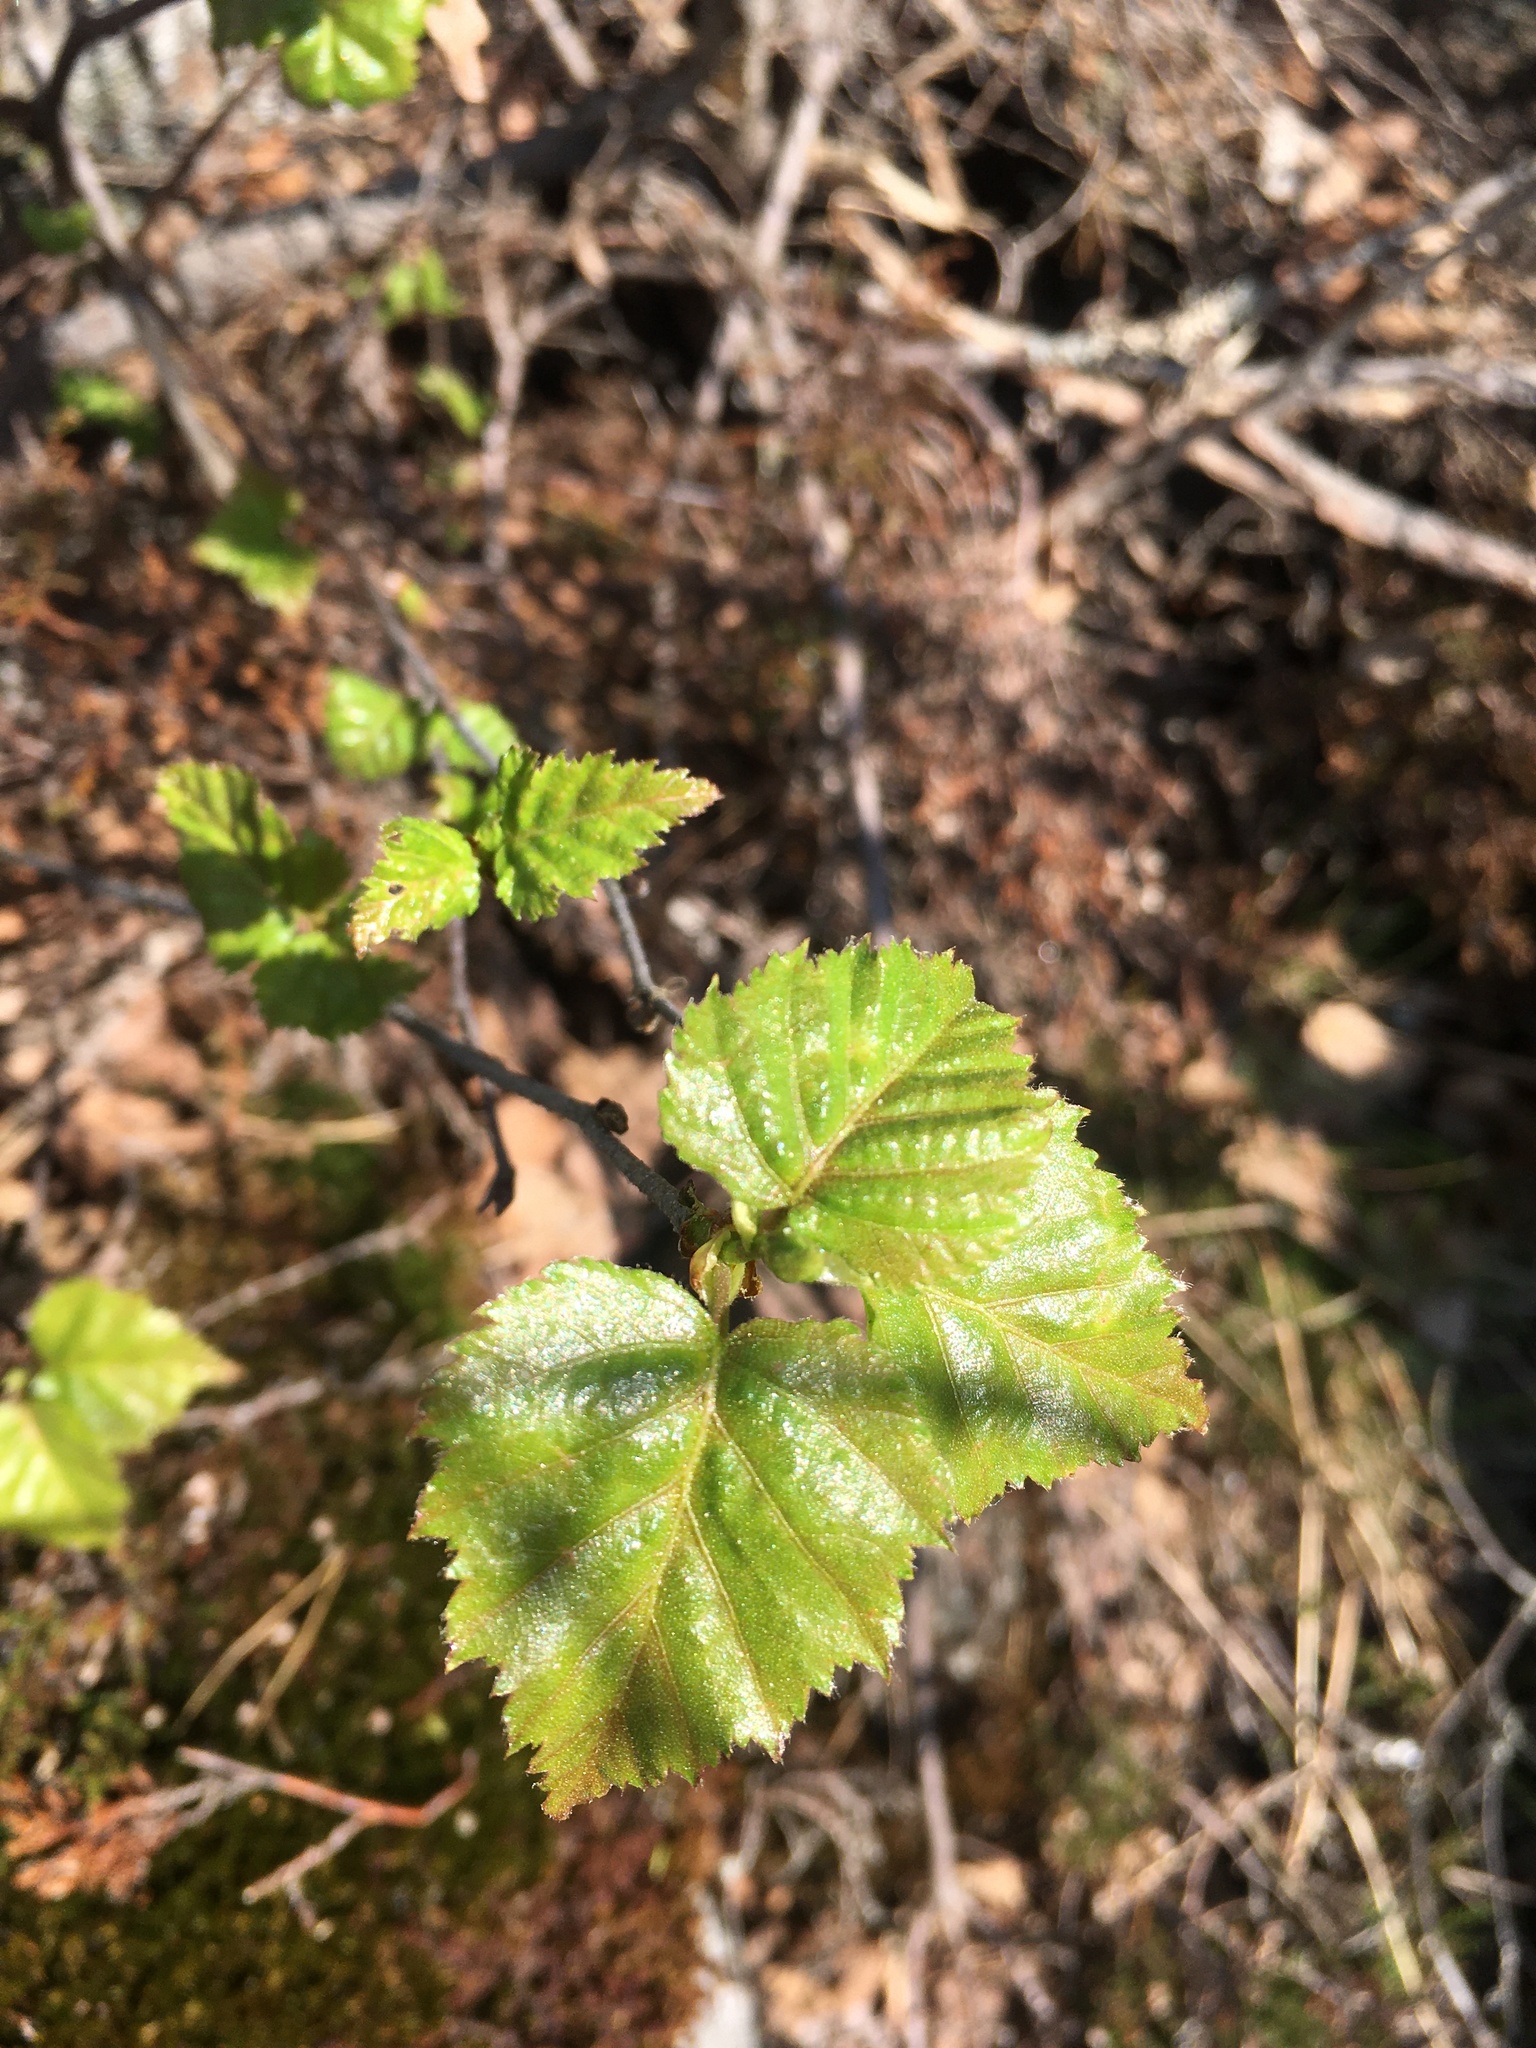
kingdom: Plantae
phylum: Tracheophyta
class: Magnoliopsida
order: Fagales
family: Betulaceae
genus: Betula
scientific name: Betula pubescens
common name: Downy birch
